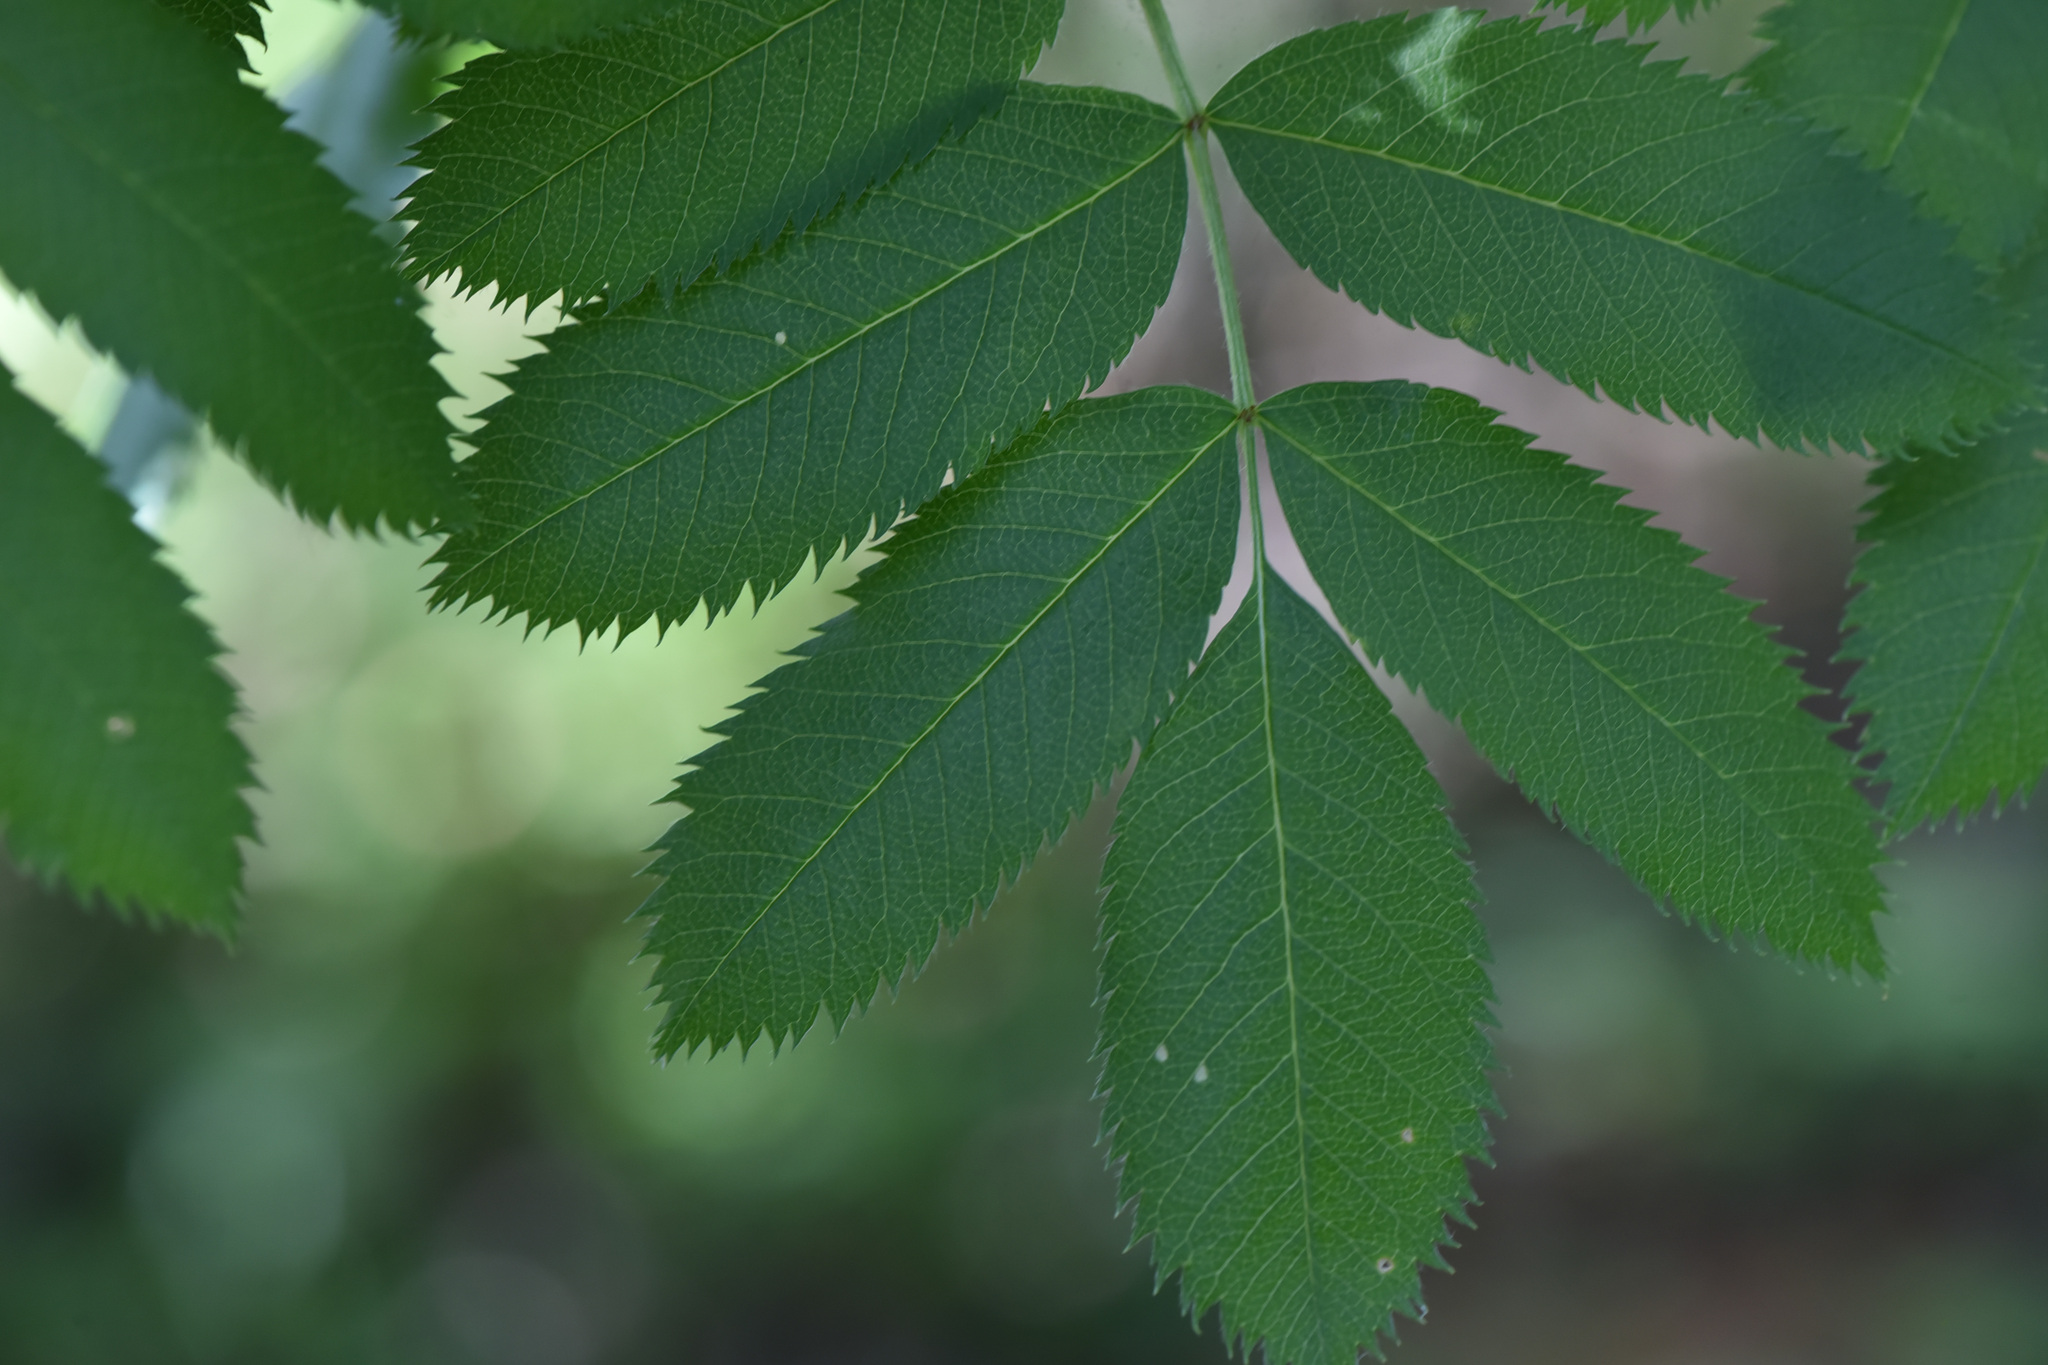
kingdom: Plantae
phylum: Tracheophyta
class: Magnoliopsida
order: Rosales
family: Rosaceae
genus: Sorbus
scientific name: Sorbus scopulina
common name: Greene's mountain-ash
